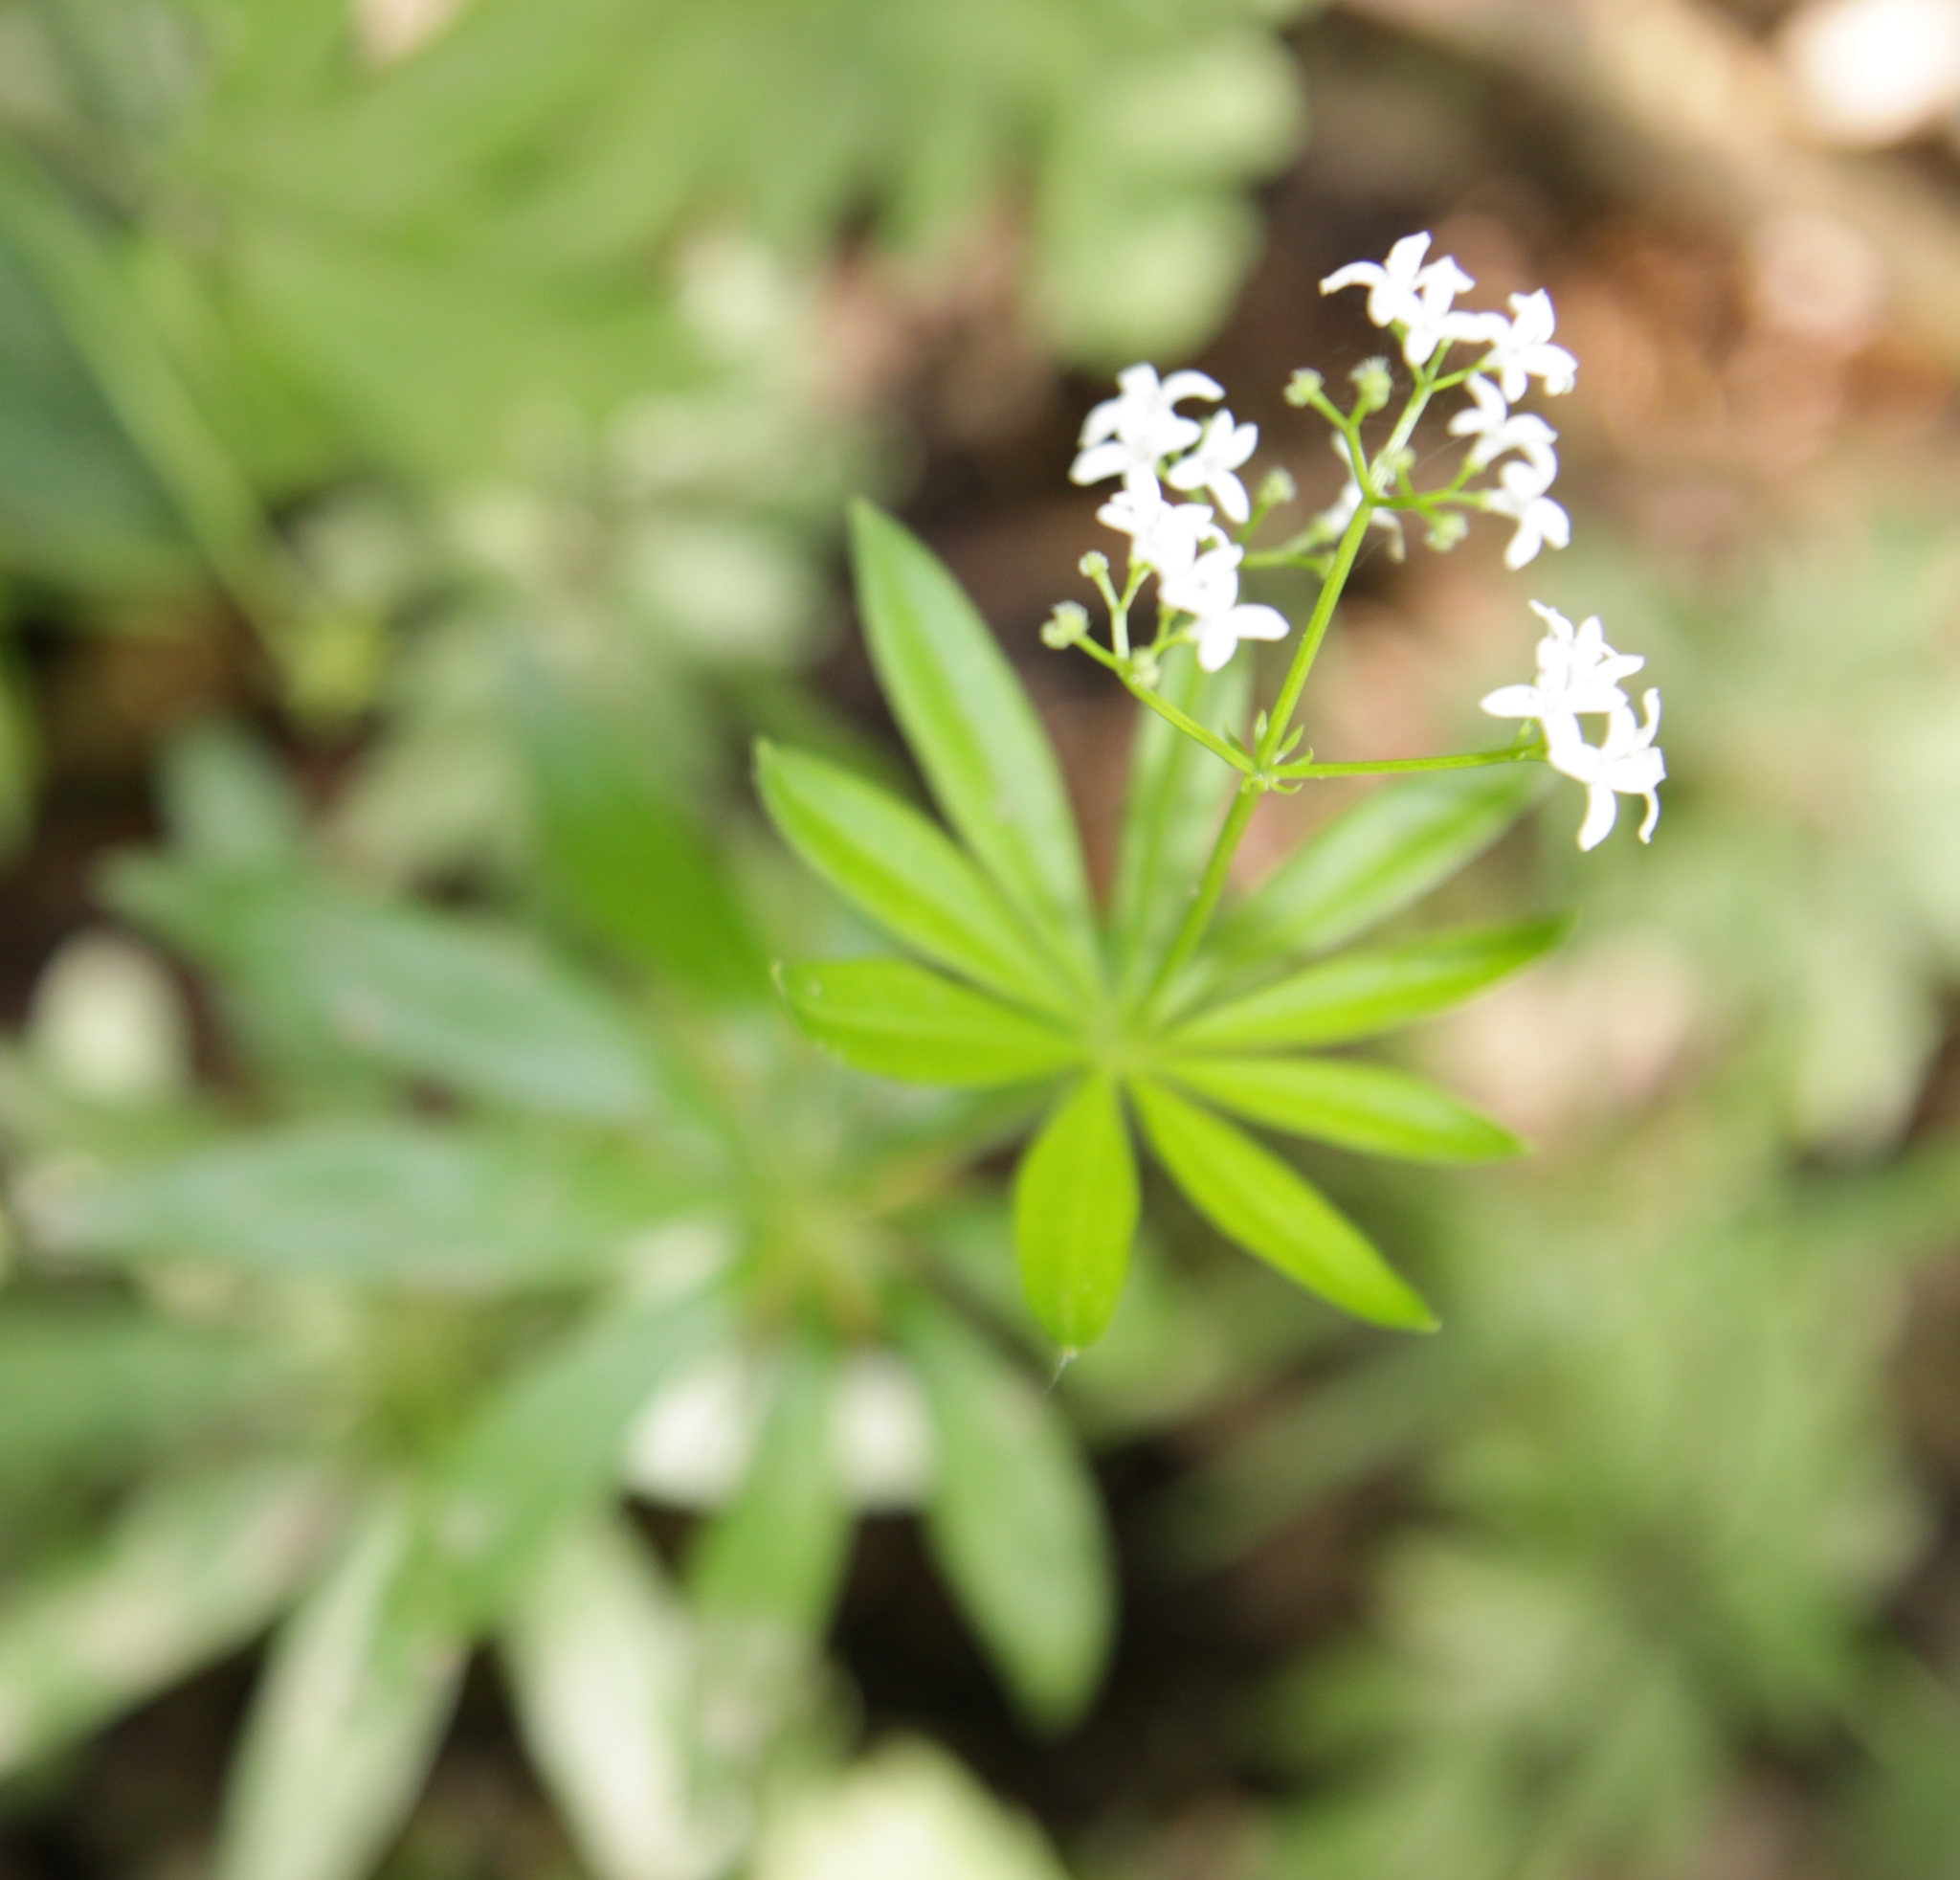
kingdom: Plantae
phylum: Tracheophyta
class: Magnoliopsida
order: Gentianales
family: Rubiaceae
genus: Galium
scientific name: Galium odoratum
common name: Sweet woodruff
